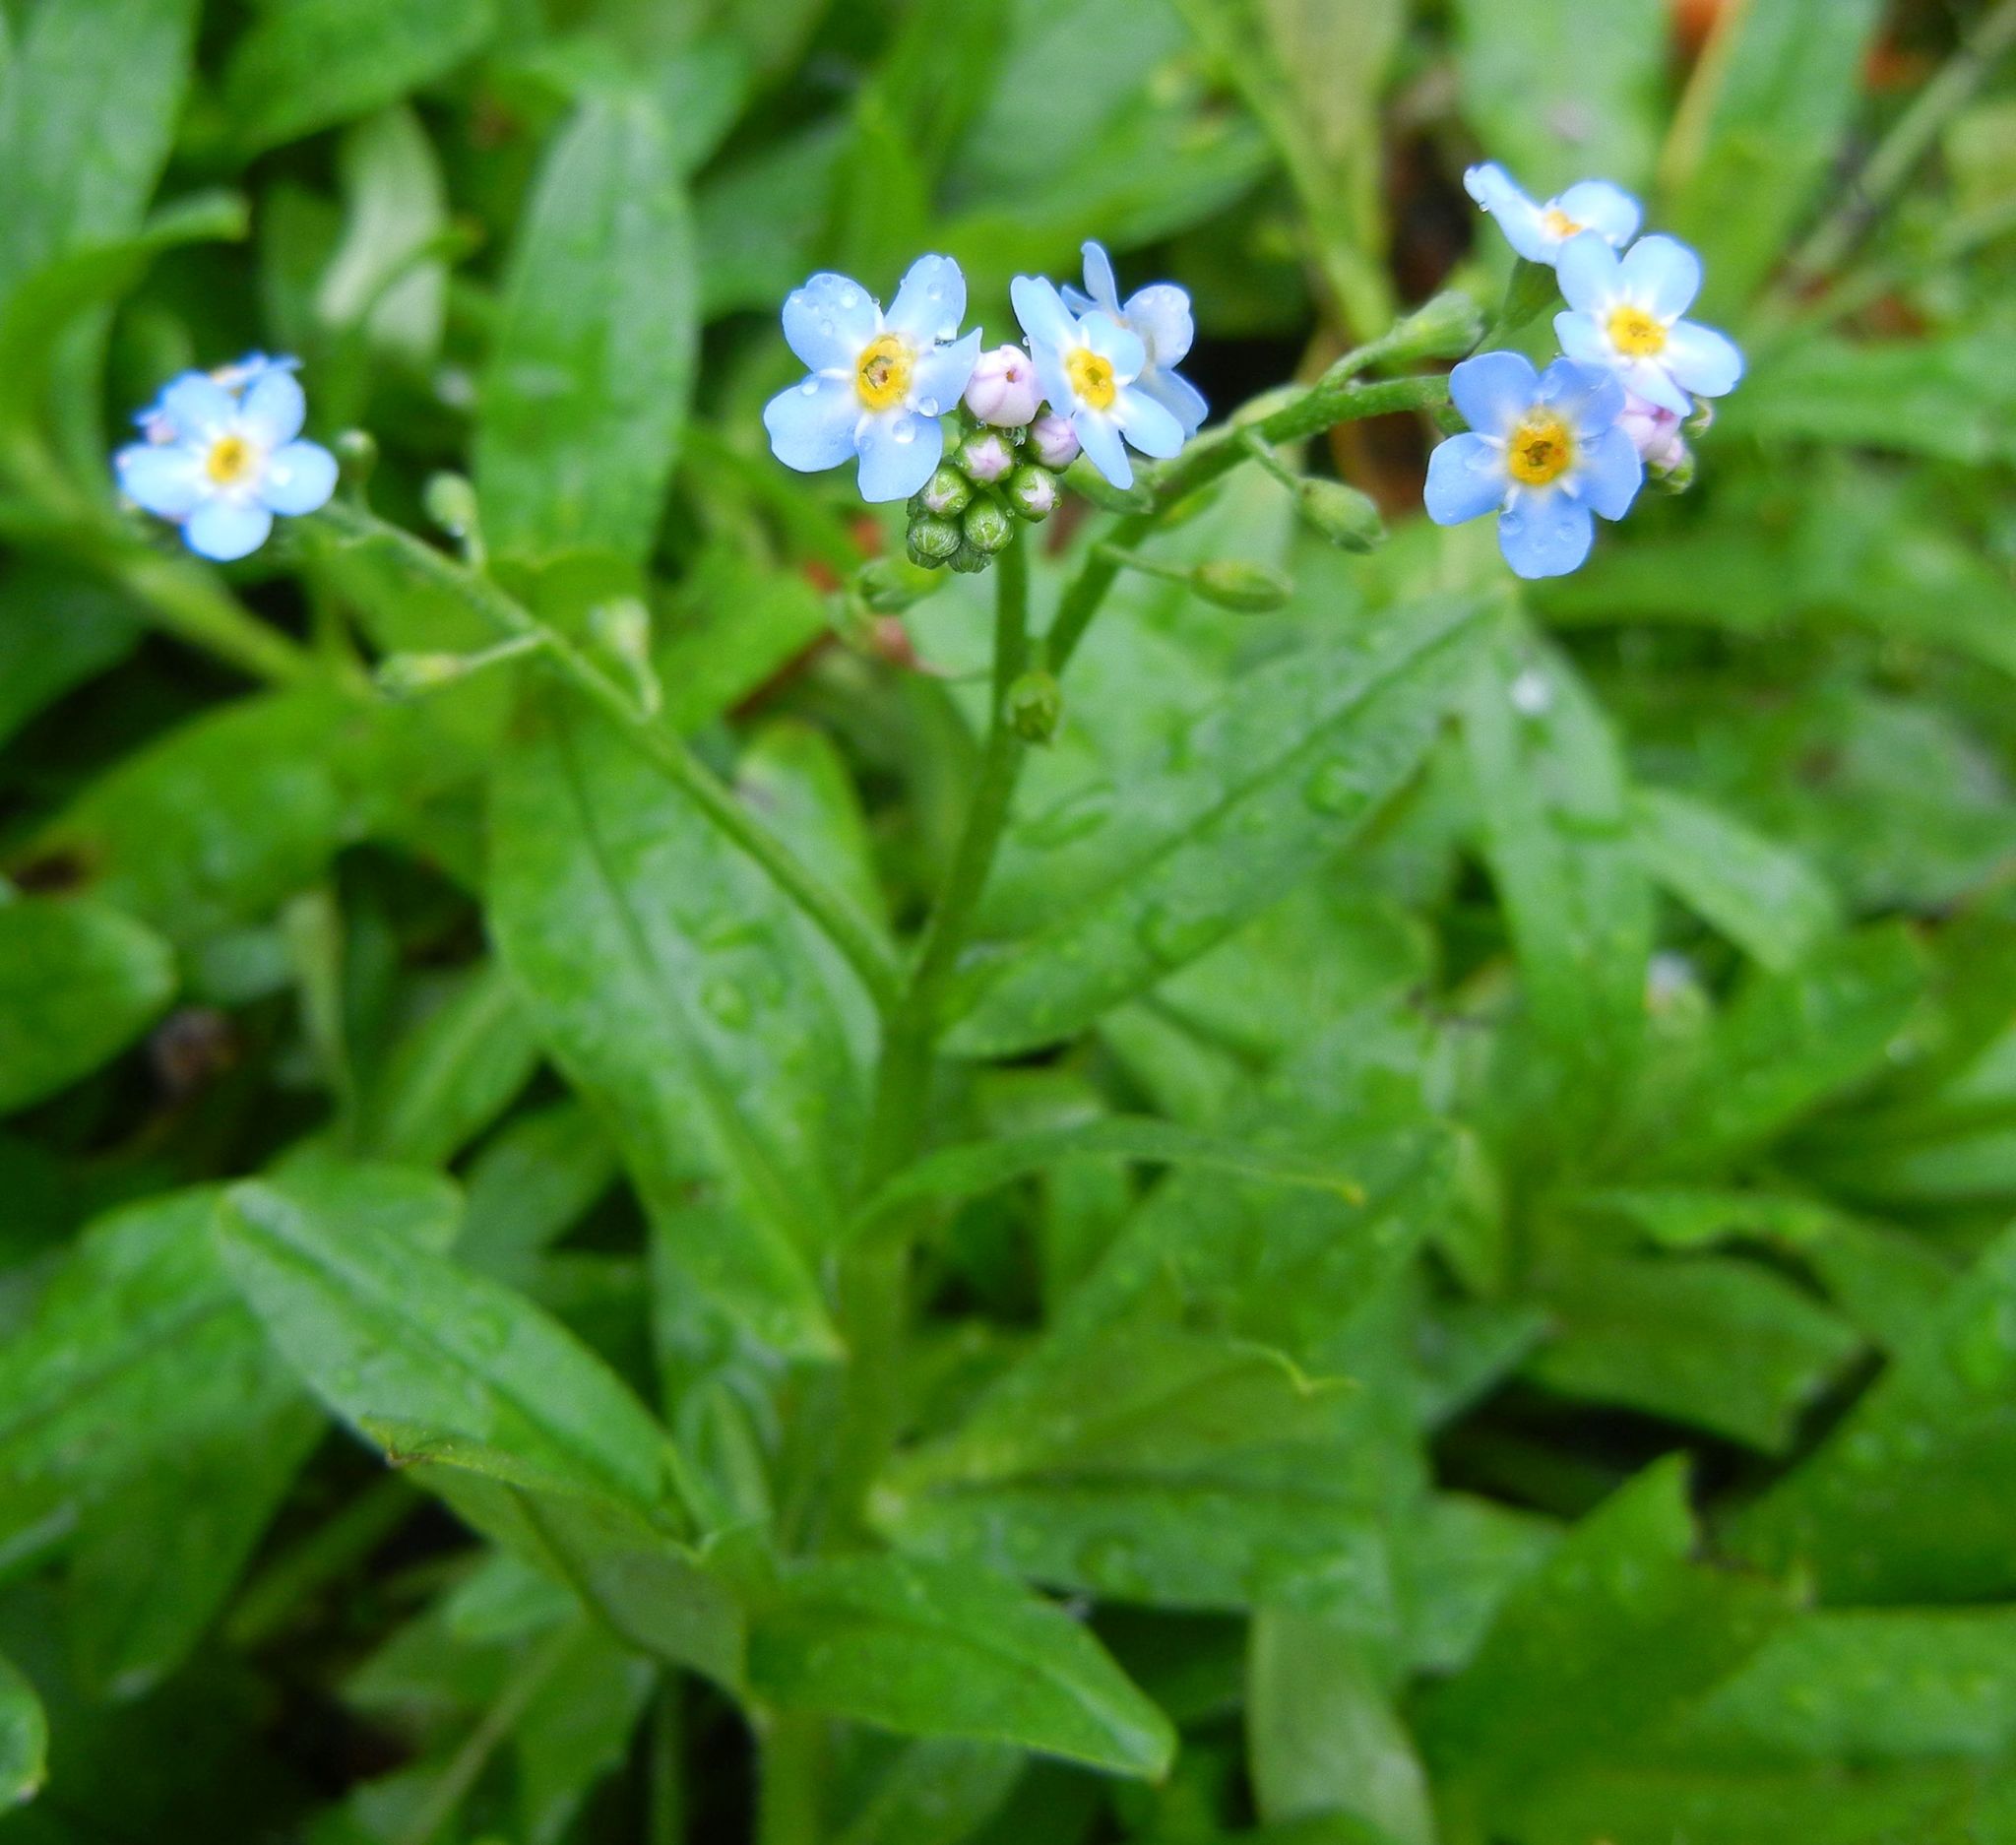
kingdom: Plantae
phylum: Tracheophyta
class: Magnoliopsida
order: Boraginales
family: Boraginaceae
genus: Myosotis
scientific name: Myosotis scorpioides
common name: Water forget-me-not
